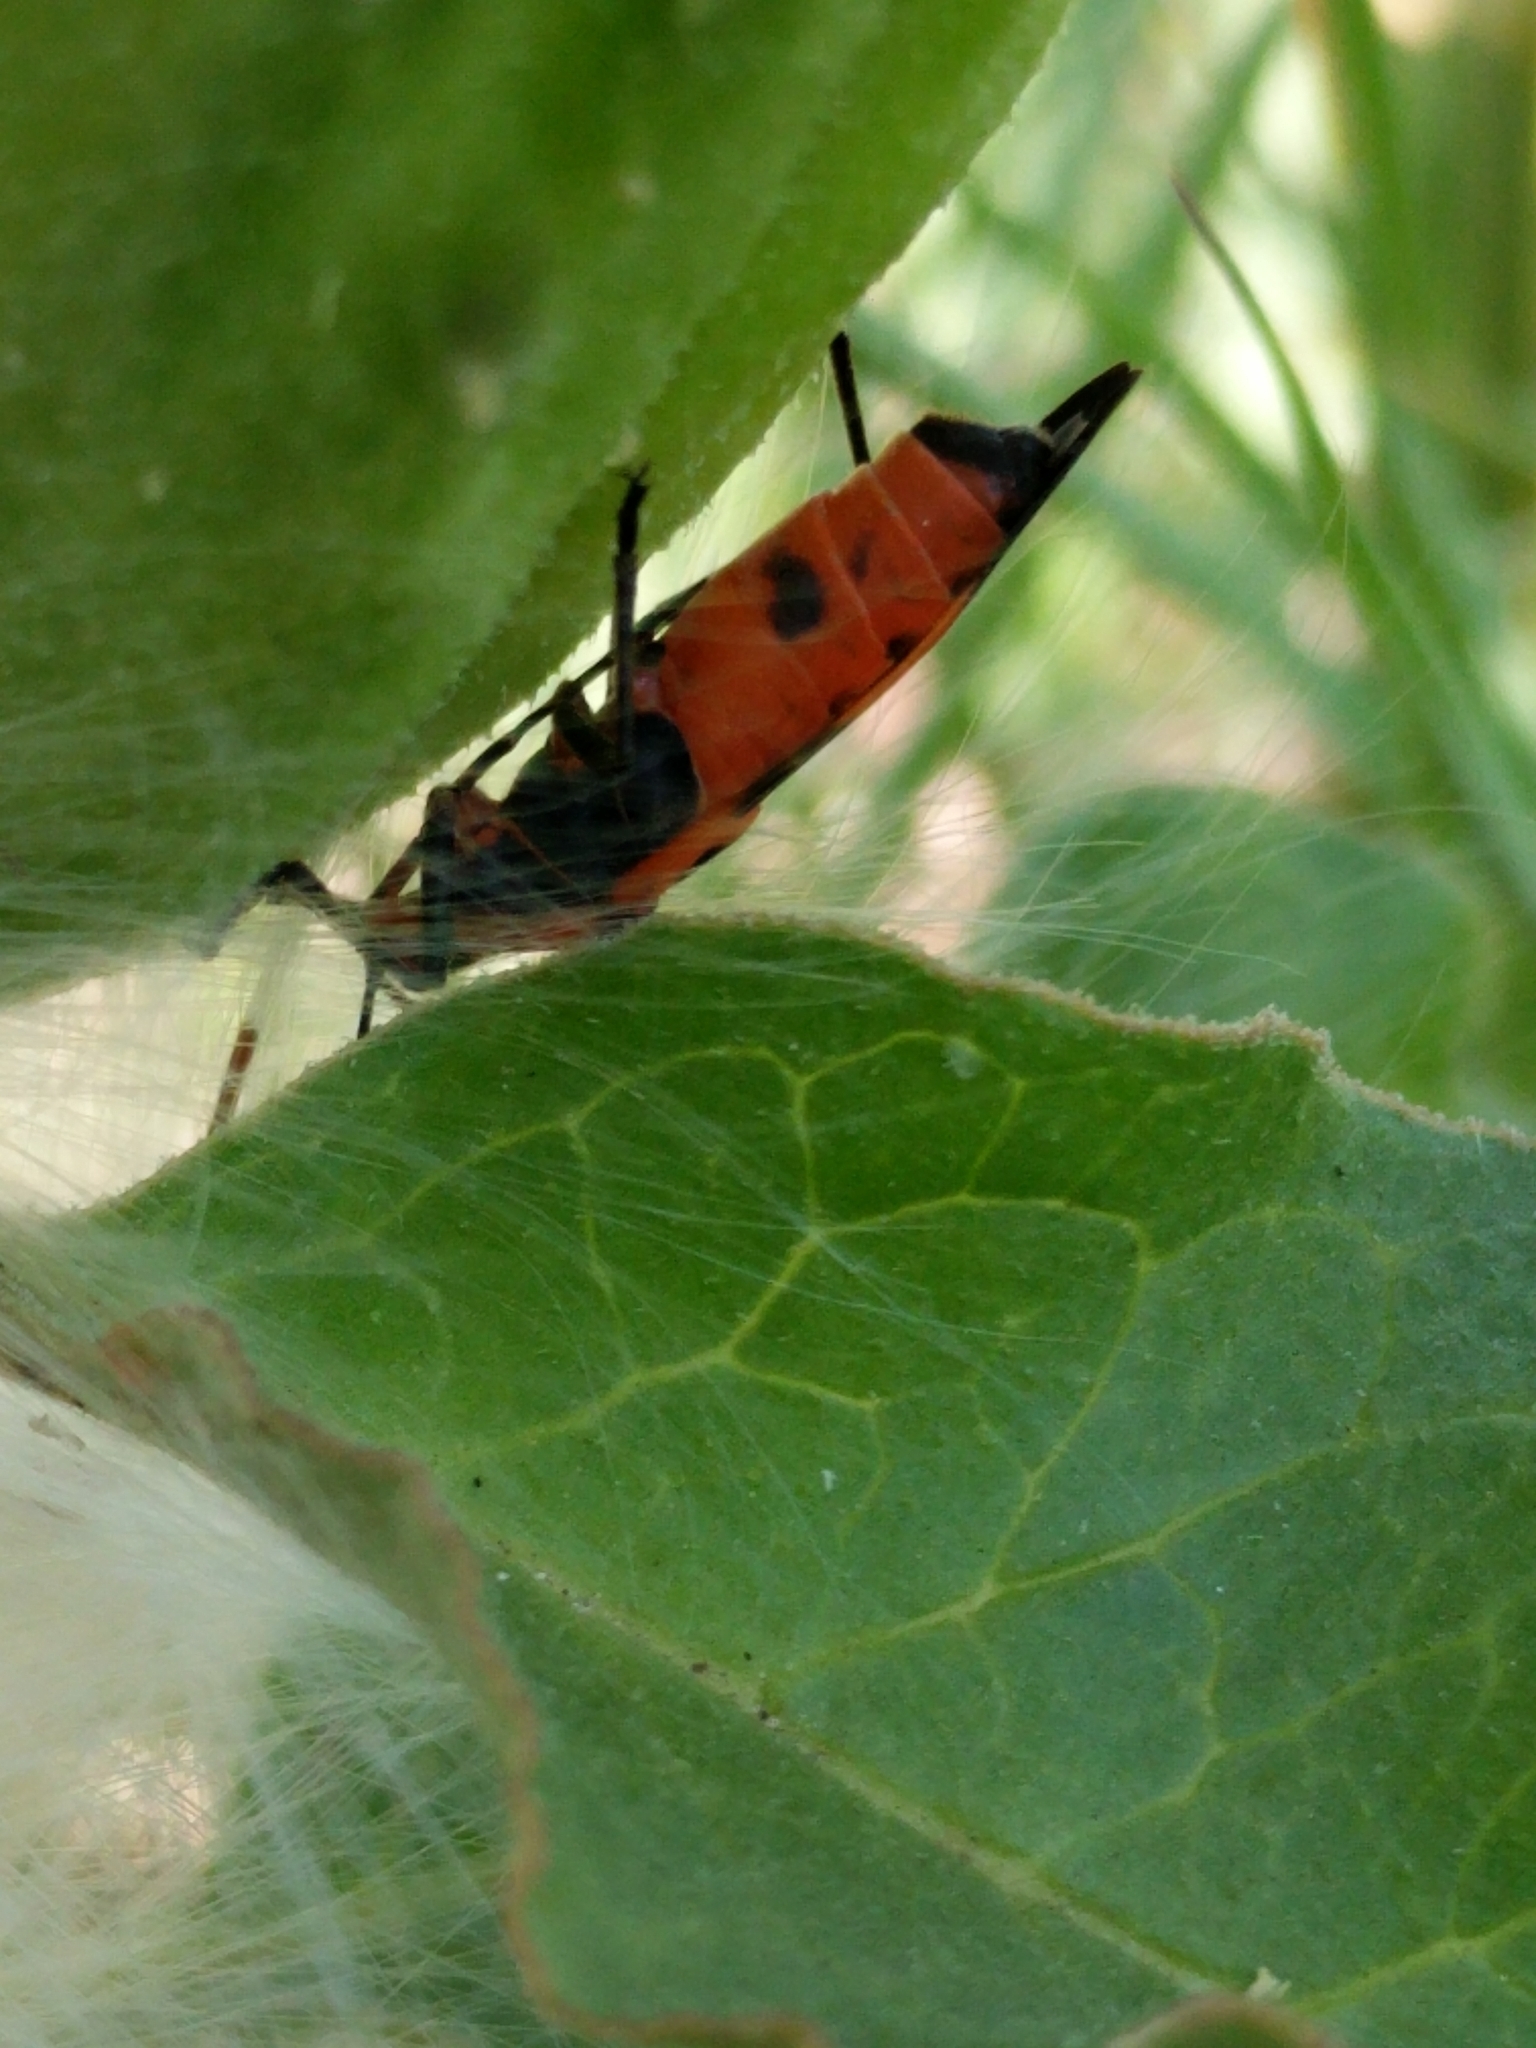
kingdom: Animalia
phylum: Arthropoda
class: Insecta
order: Hemiptera
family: Lygaeidae
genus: Oncopeltus
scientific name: Oncopeltus fasciatus
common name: Large milkweed bug
